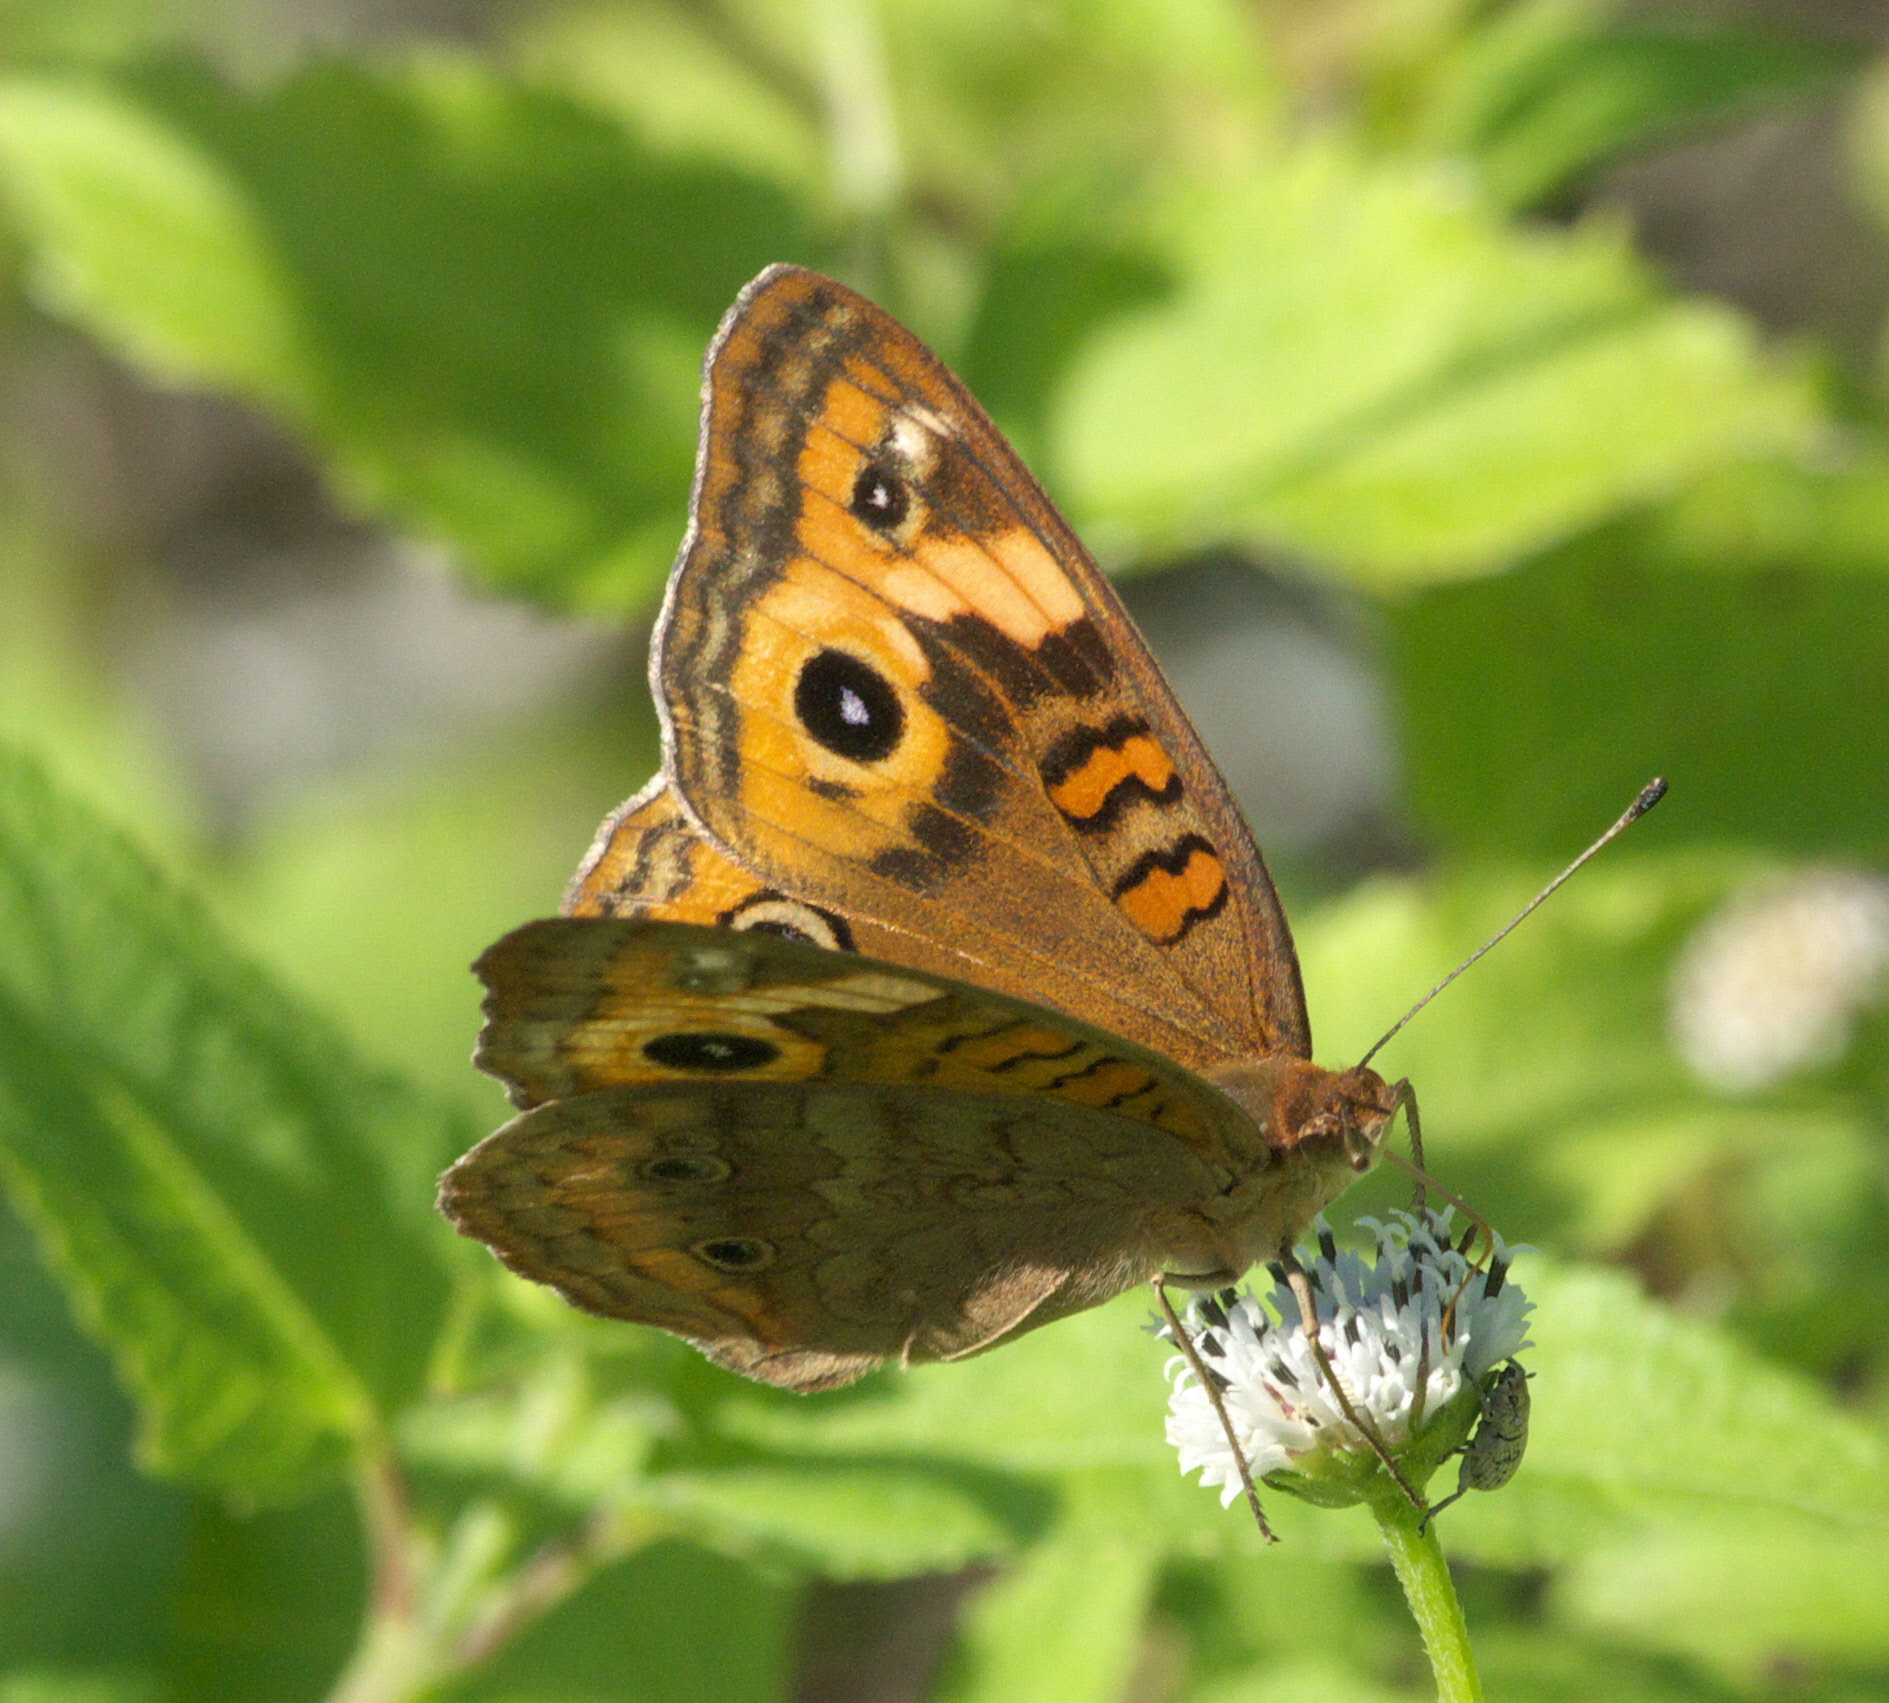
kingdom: Animalia
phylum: Arthropoda
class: Insecta
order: Lepidoptera
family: Nymphalidae
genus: Junonia
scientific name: Junonia neildi
